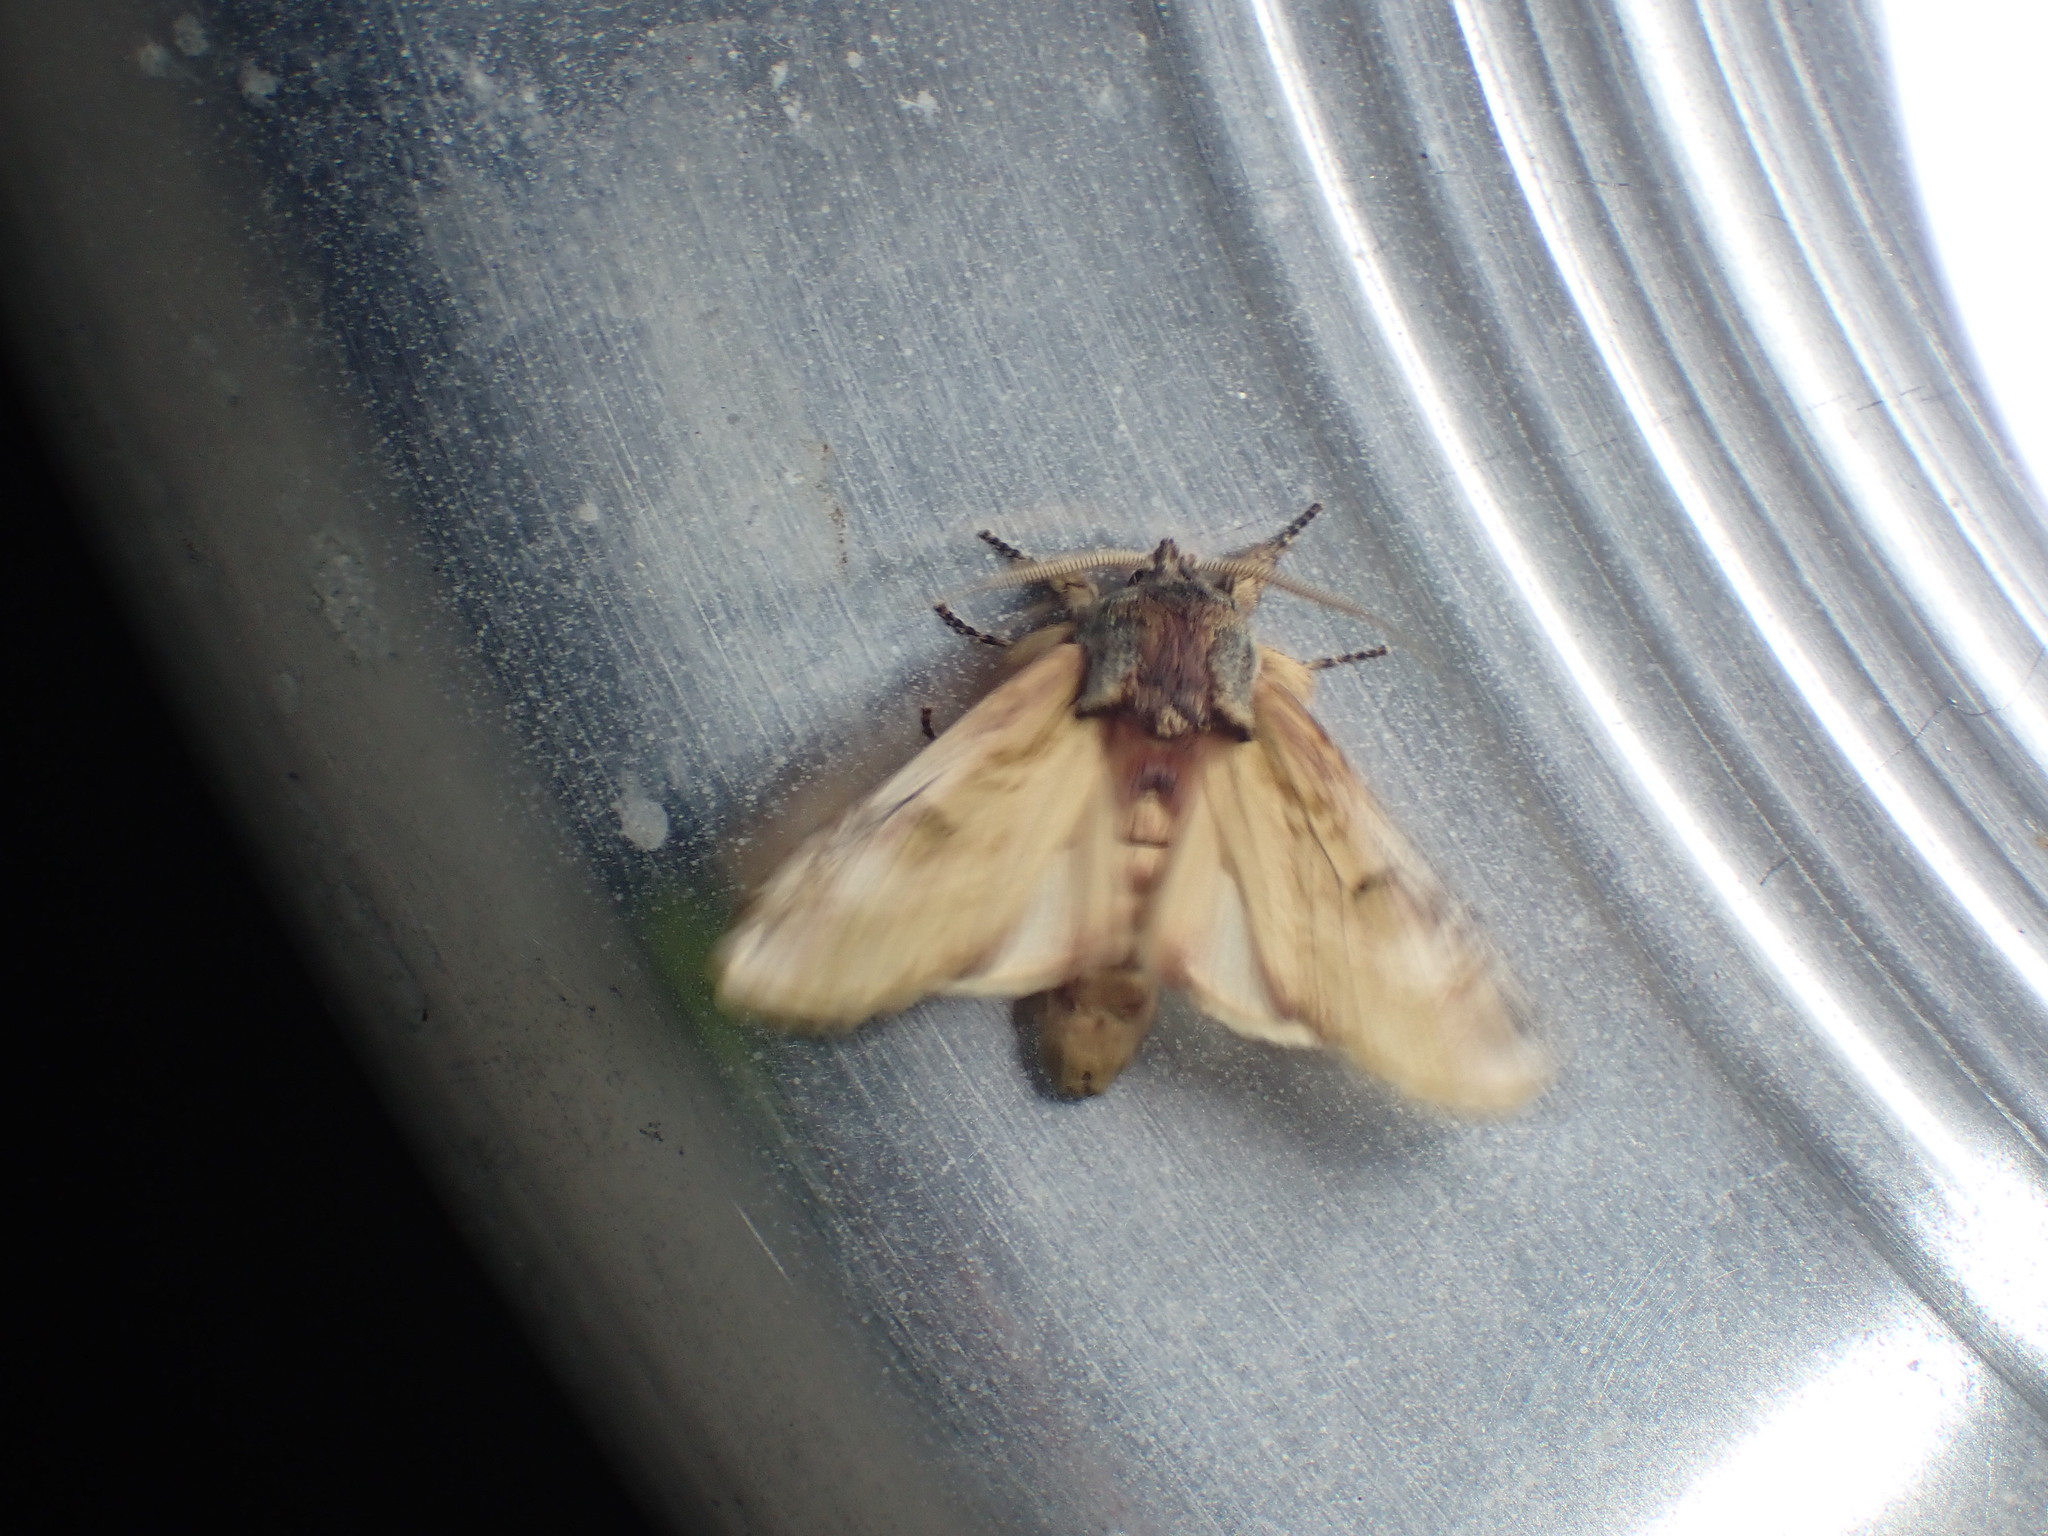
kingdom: Animalia
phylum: Arthropoda
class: Insecta
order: Lepidoptera
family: Notodontidae
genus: Schizura
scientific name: Schizura
